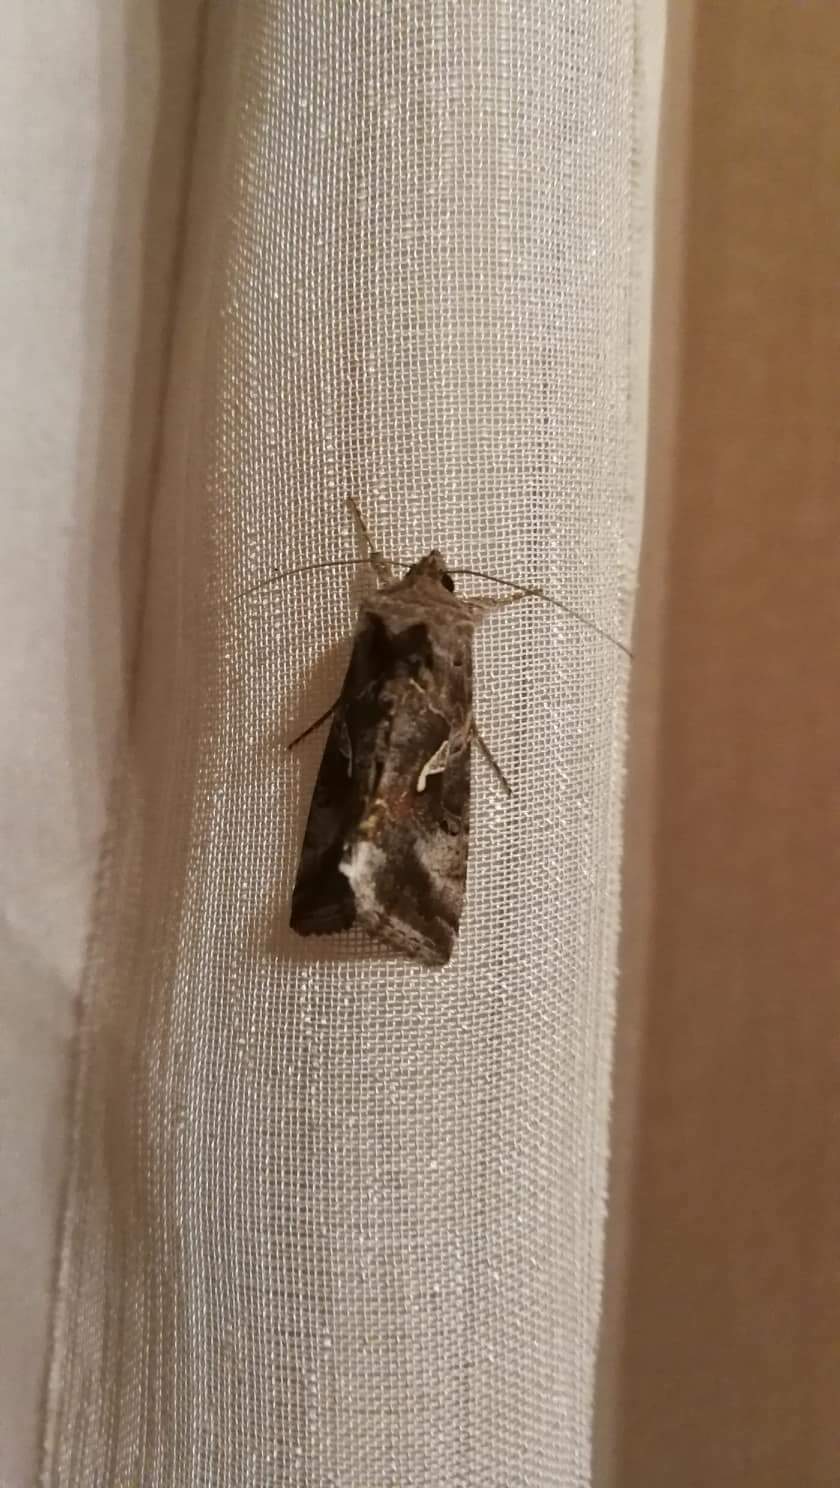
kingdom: Animalia
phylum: Arthropoda
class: Insecta
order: Lepidoptera
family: Noctuidae
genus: Autographa
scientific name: Autographa gamma
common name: Silver y
